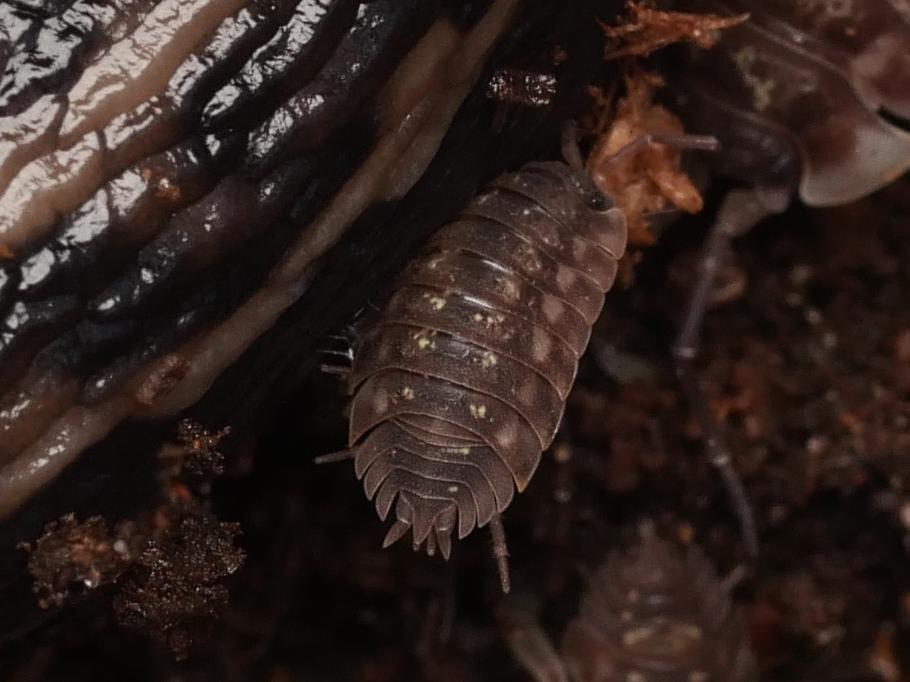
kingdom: Animalia
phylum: Arthropoda
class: Malacostraca
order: Isopoda
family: Oniscidae
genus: Oniscus
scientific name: Oniscus asellus
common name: Common shiny woodlouse
